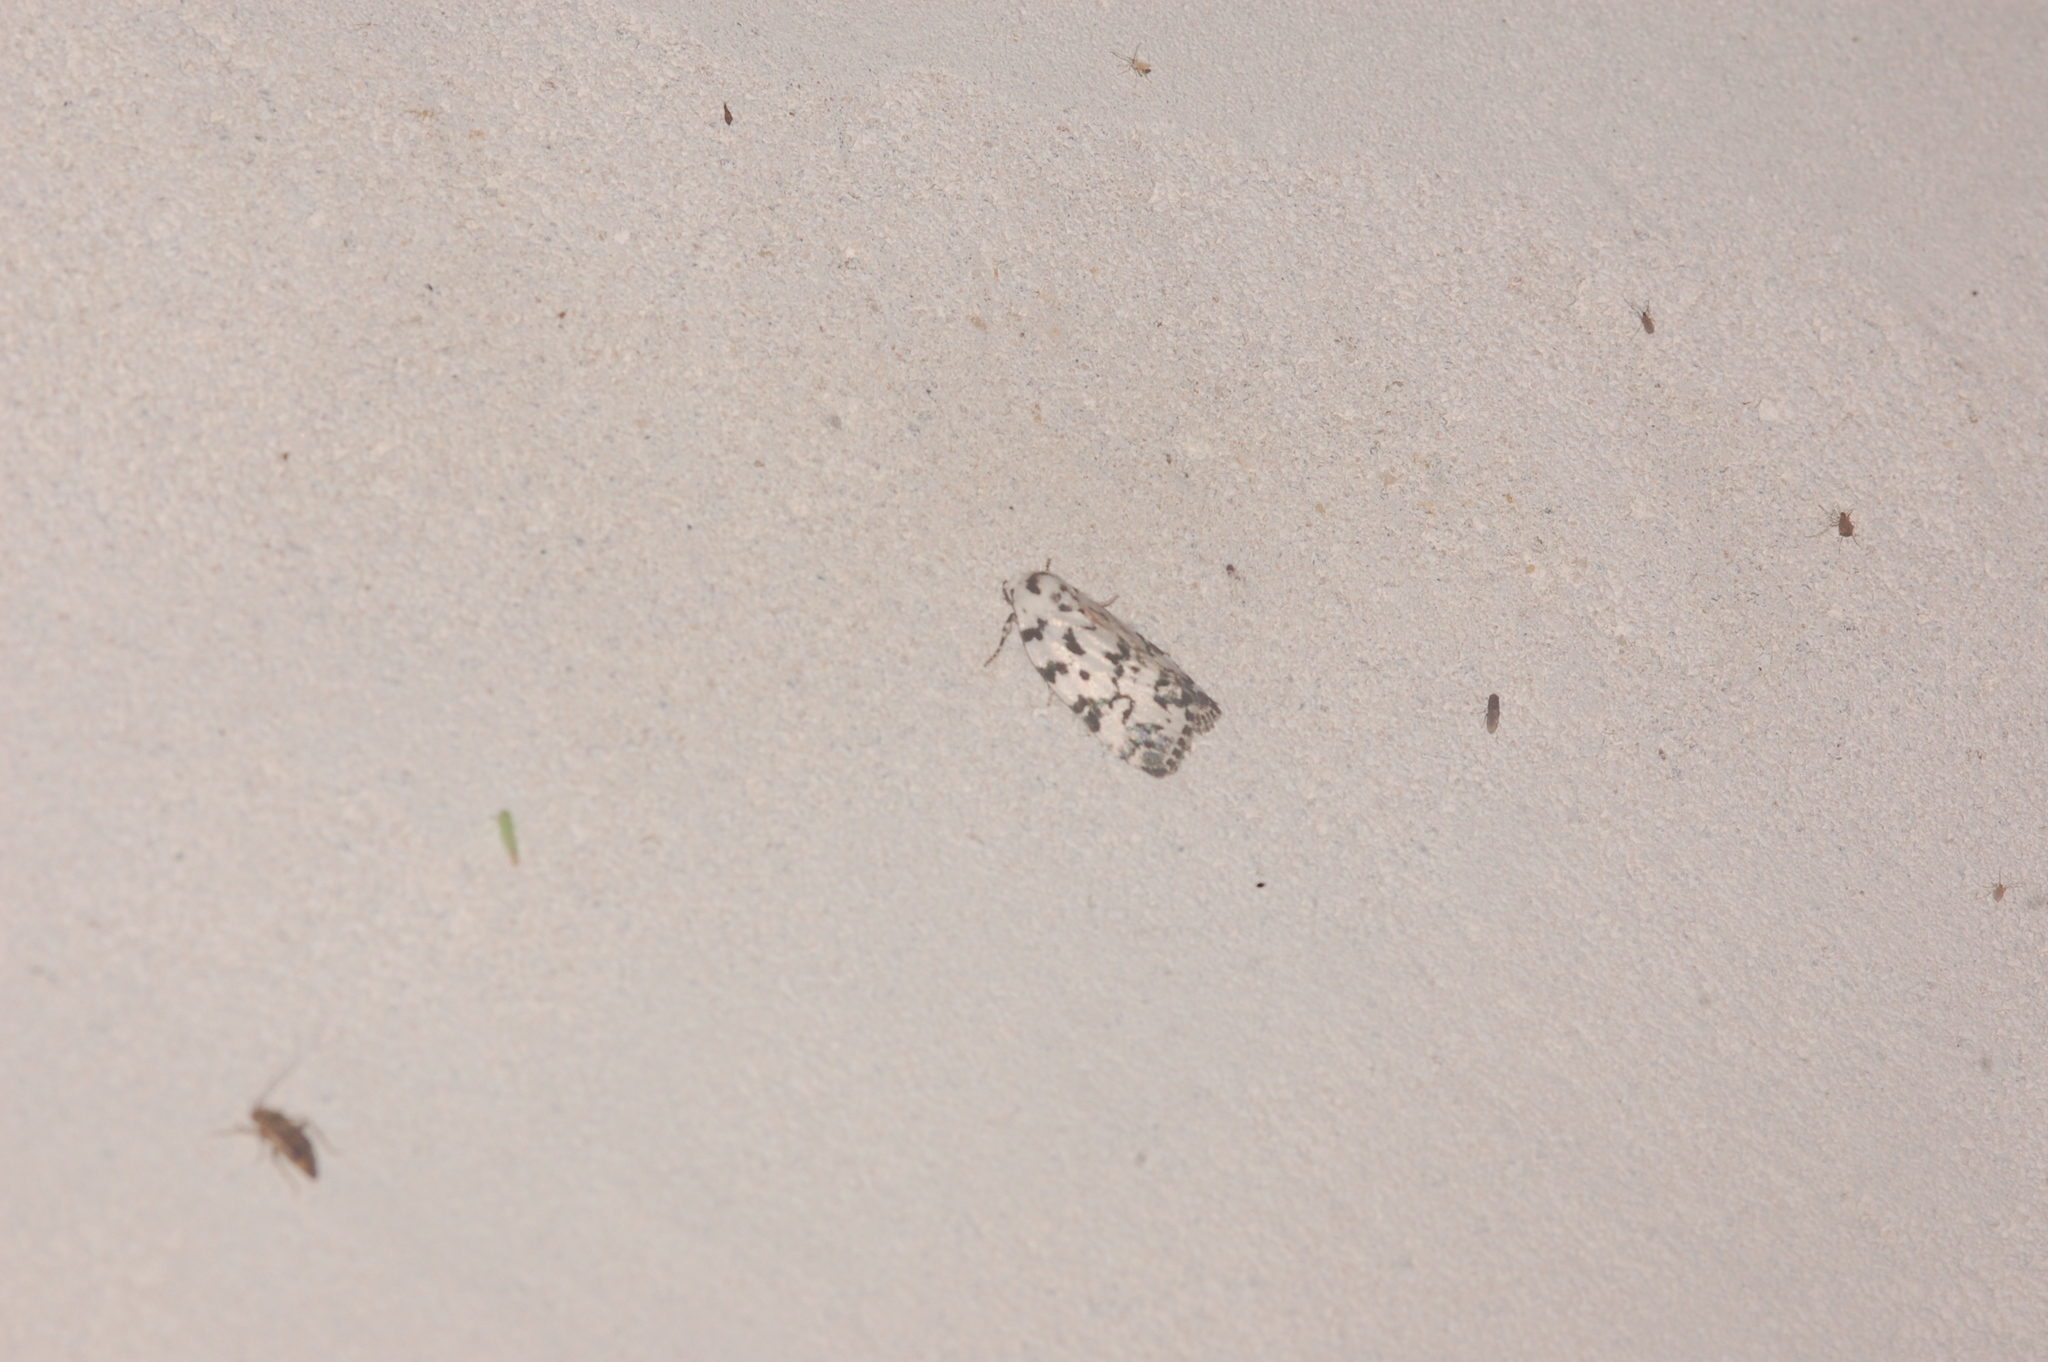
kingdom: Animalia
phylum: Arthropoda
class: Insecta
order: Lepidoptera
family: Noctuidae
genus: Polygrammate
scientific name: Polygrammate hebraeicum
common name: Hebrew moth
